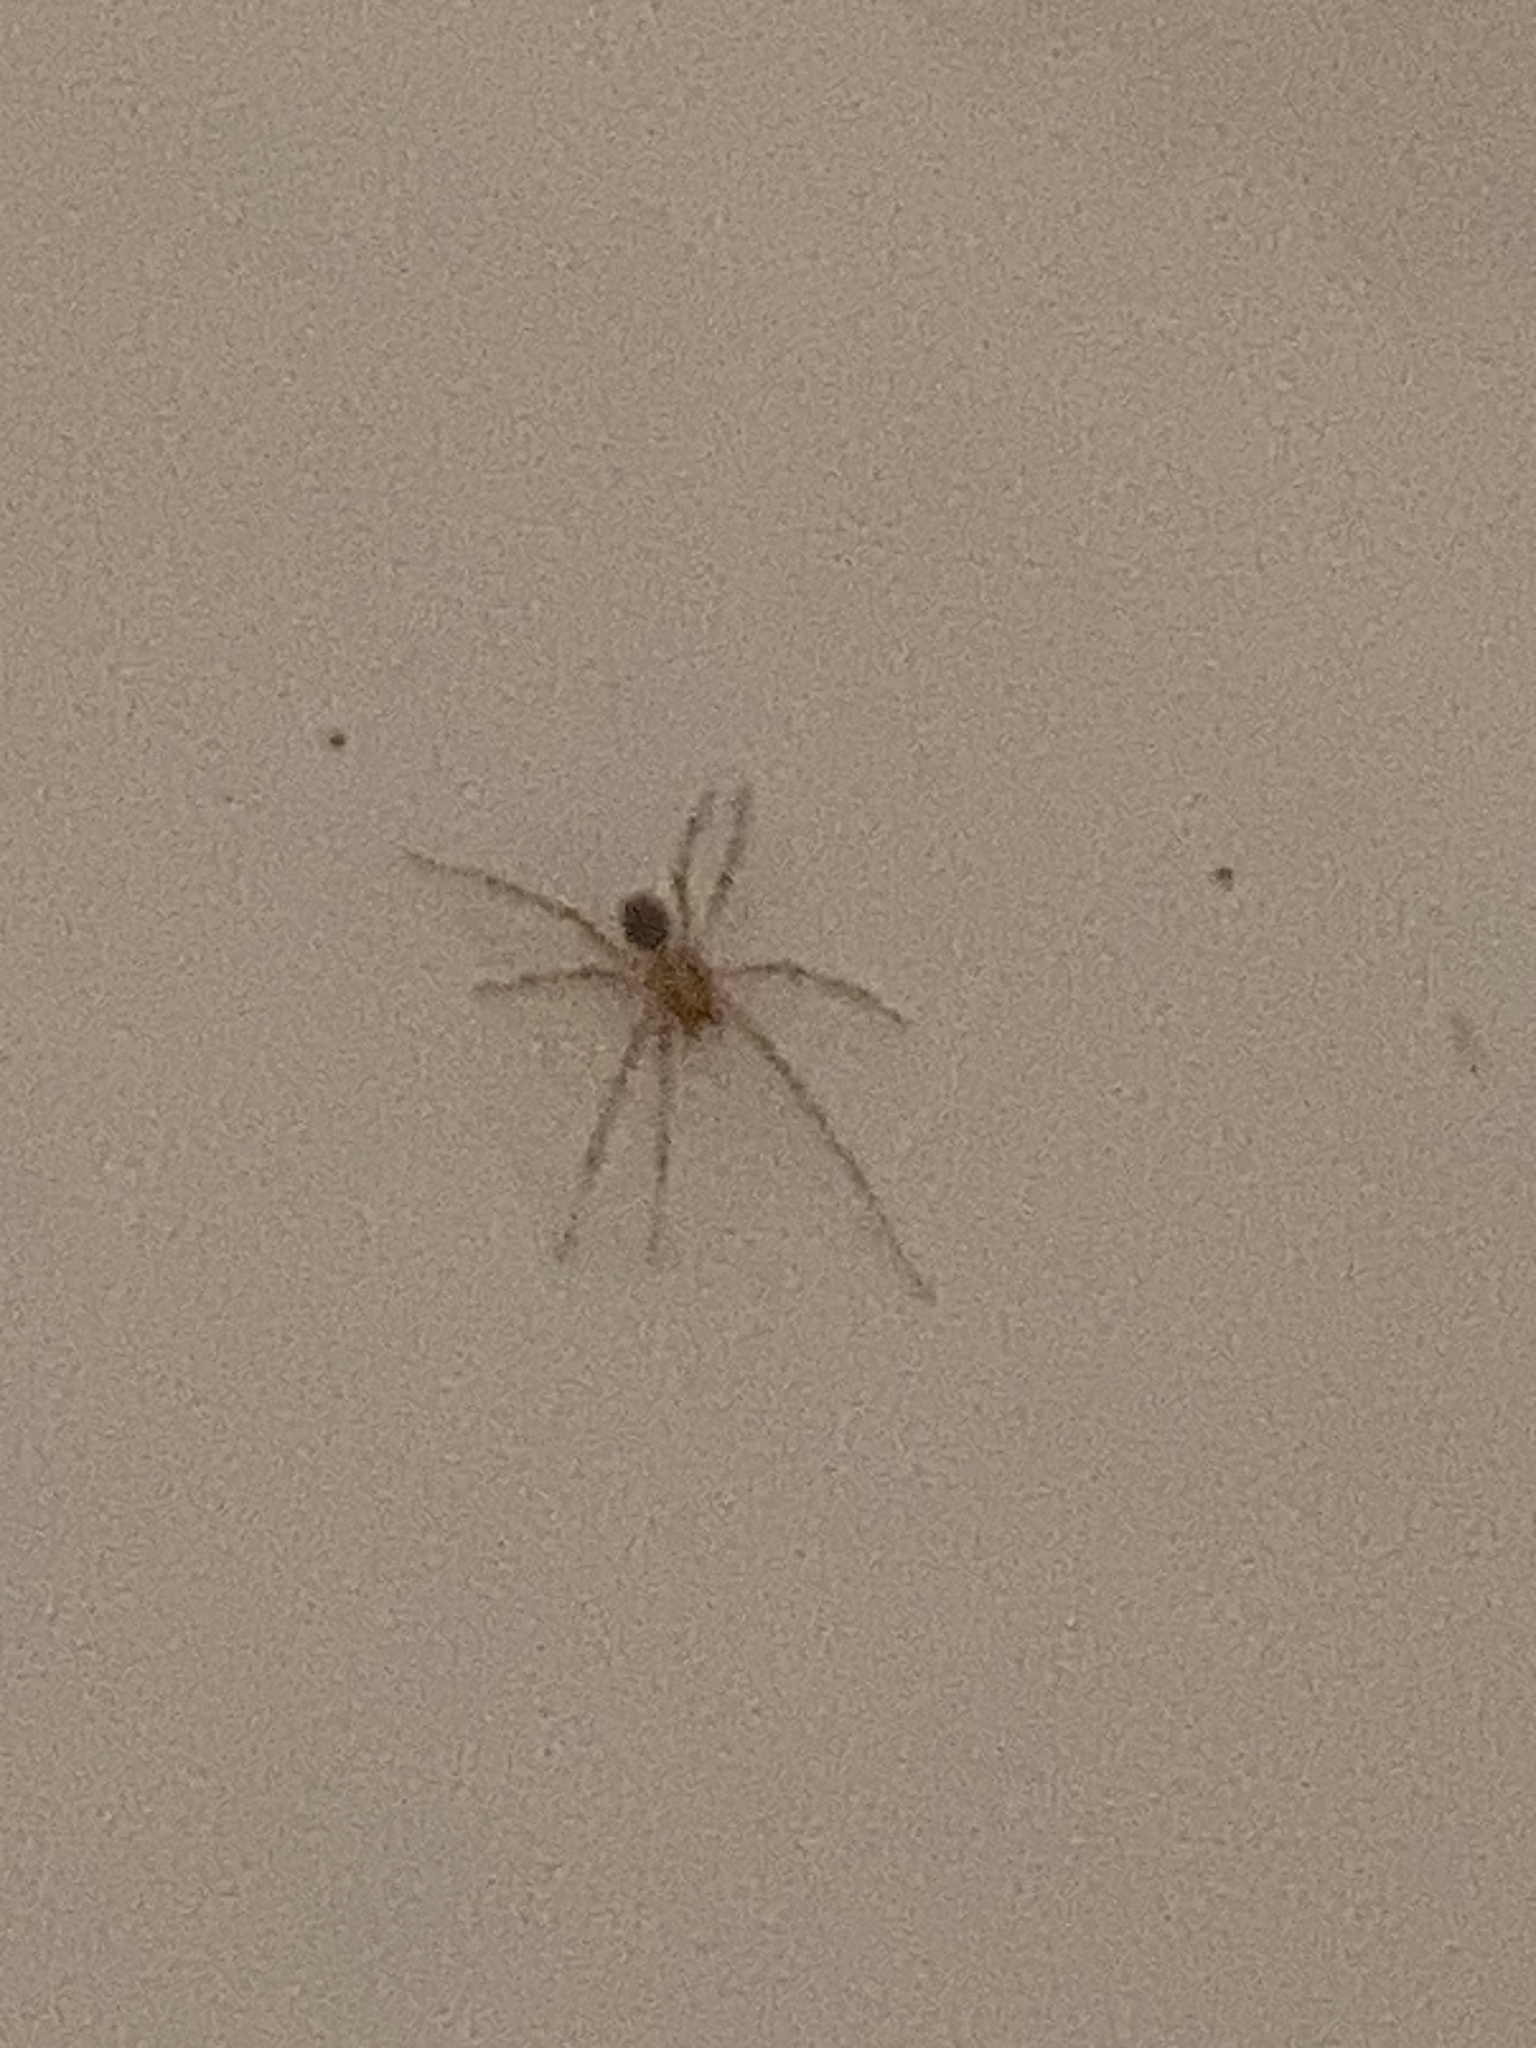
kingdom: Animalia
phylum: Arthropoda
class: Arachnida
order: Araneae
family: Scytodidae
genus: Scytodes
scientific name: Scytodes thoracica
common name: Spitting spider
